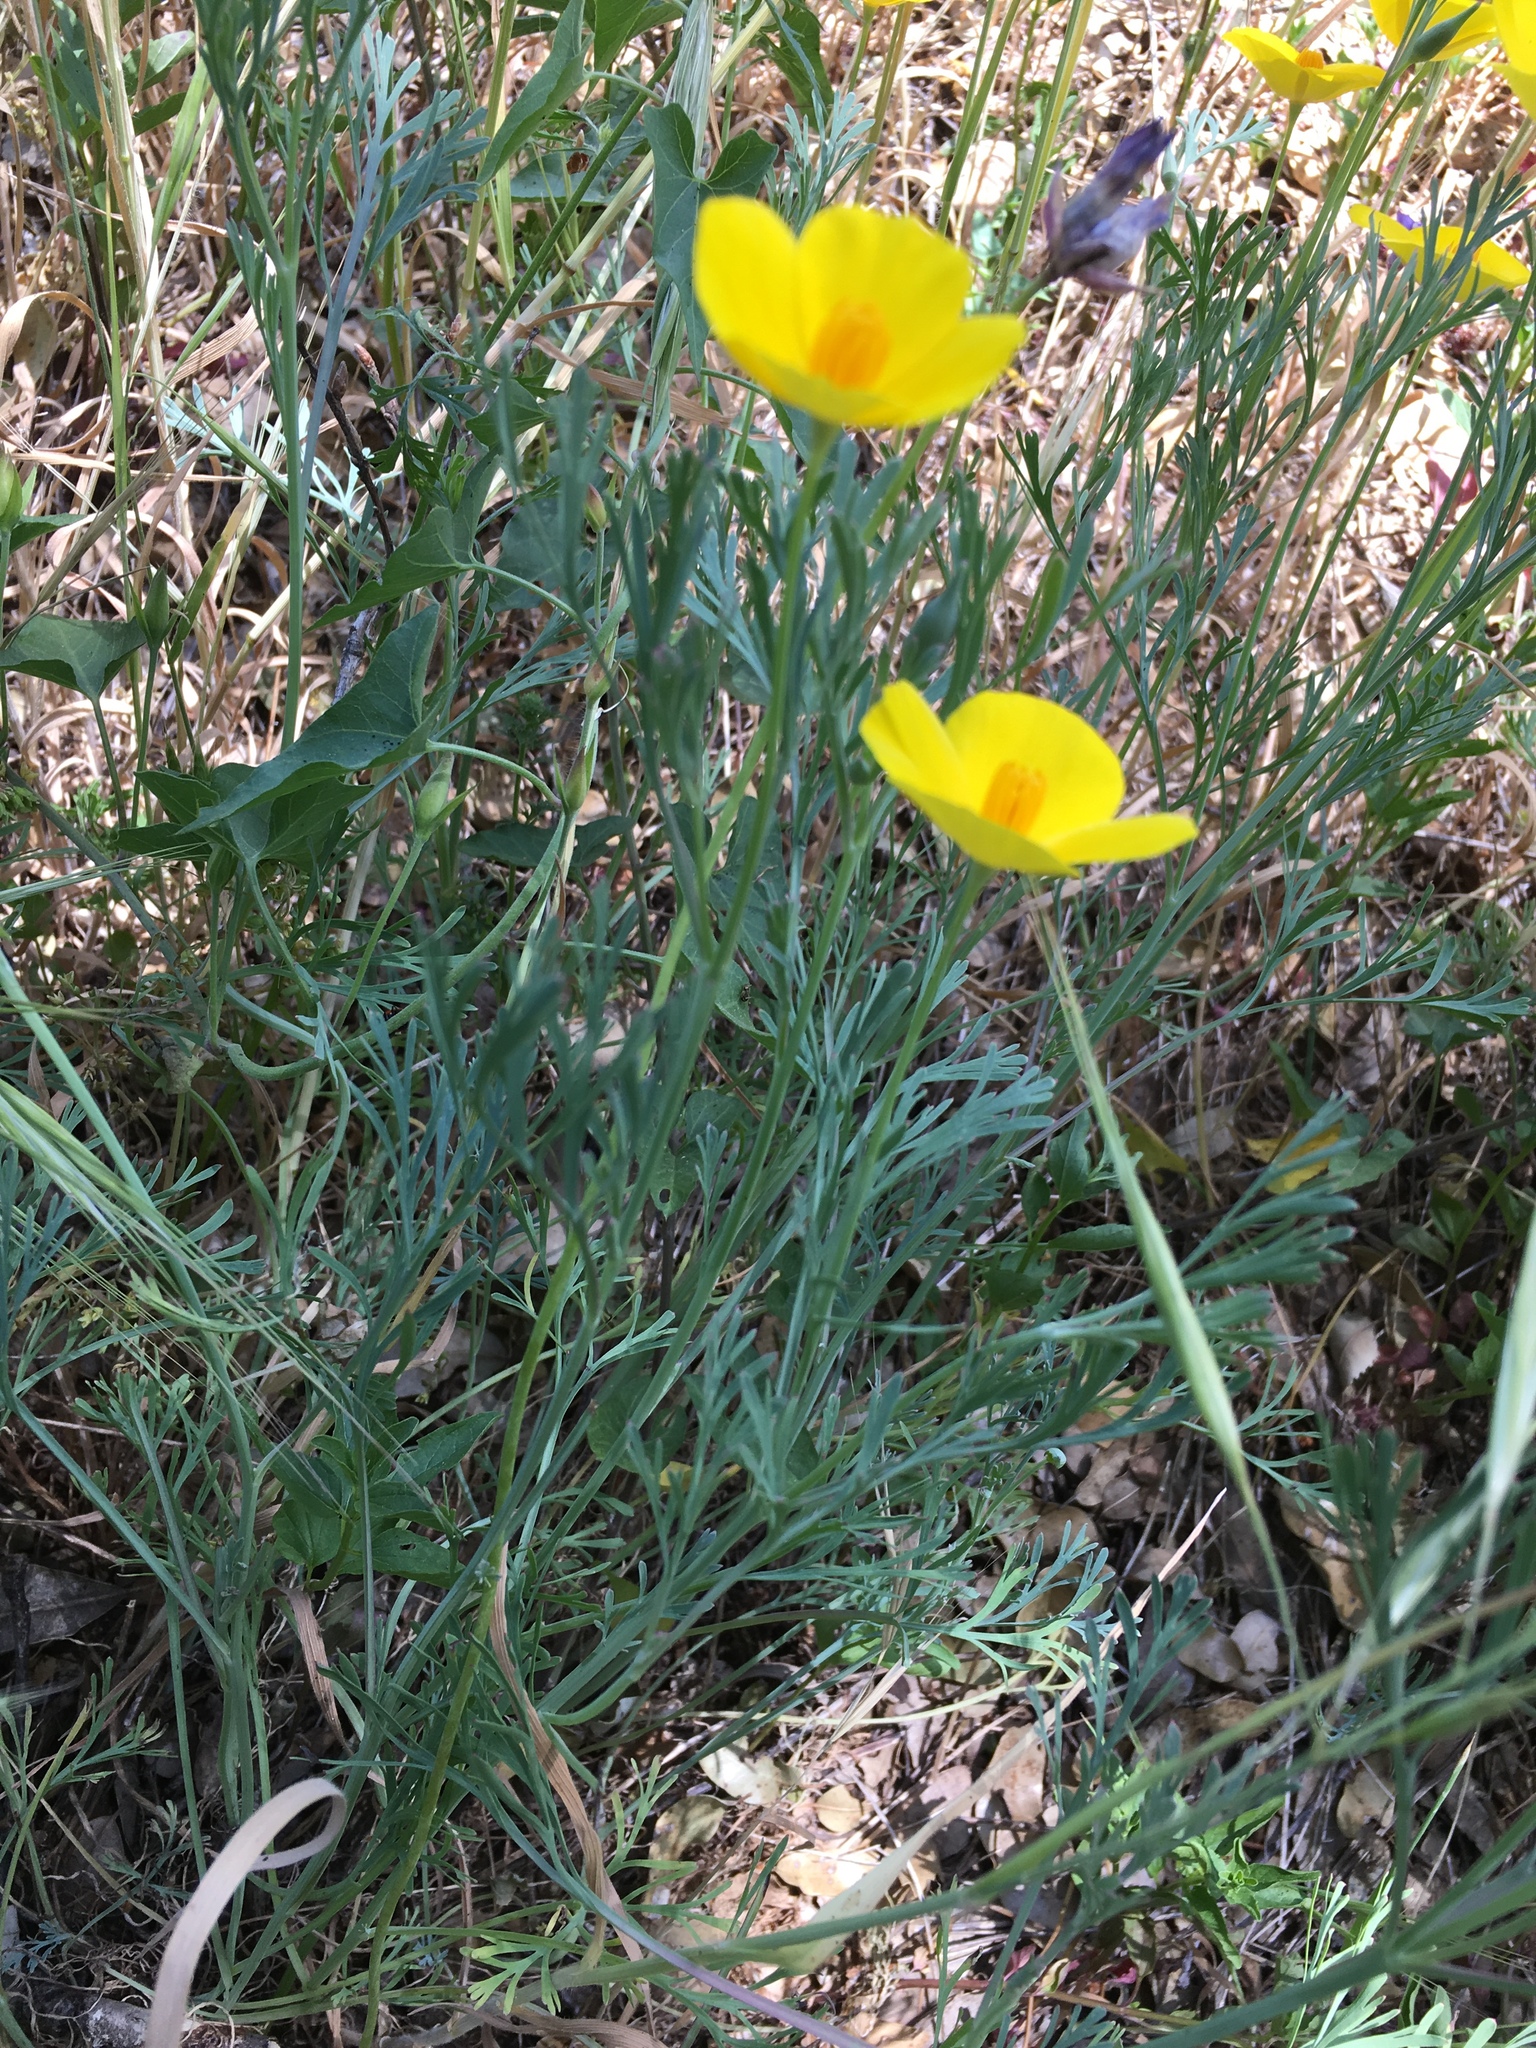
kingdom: Plantae
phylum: Tracheophyta
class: Magnoliopsida
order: Ranunculales
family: Papaveraceae
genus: Eschscholzia
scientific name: Eschscholzia caespitosa
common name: Tufted california-poppy
